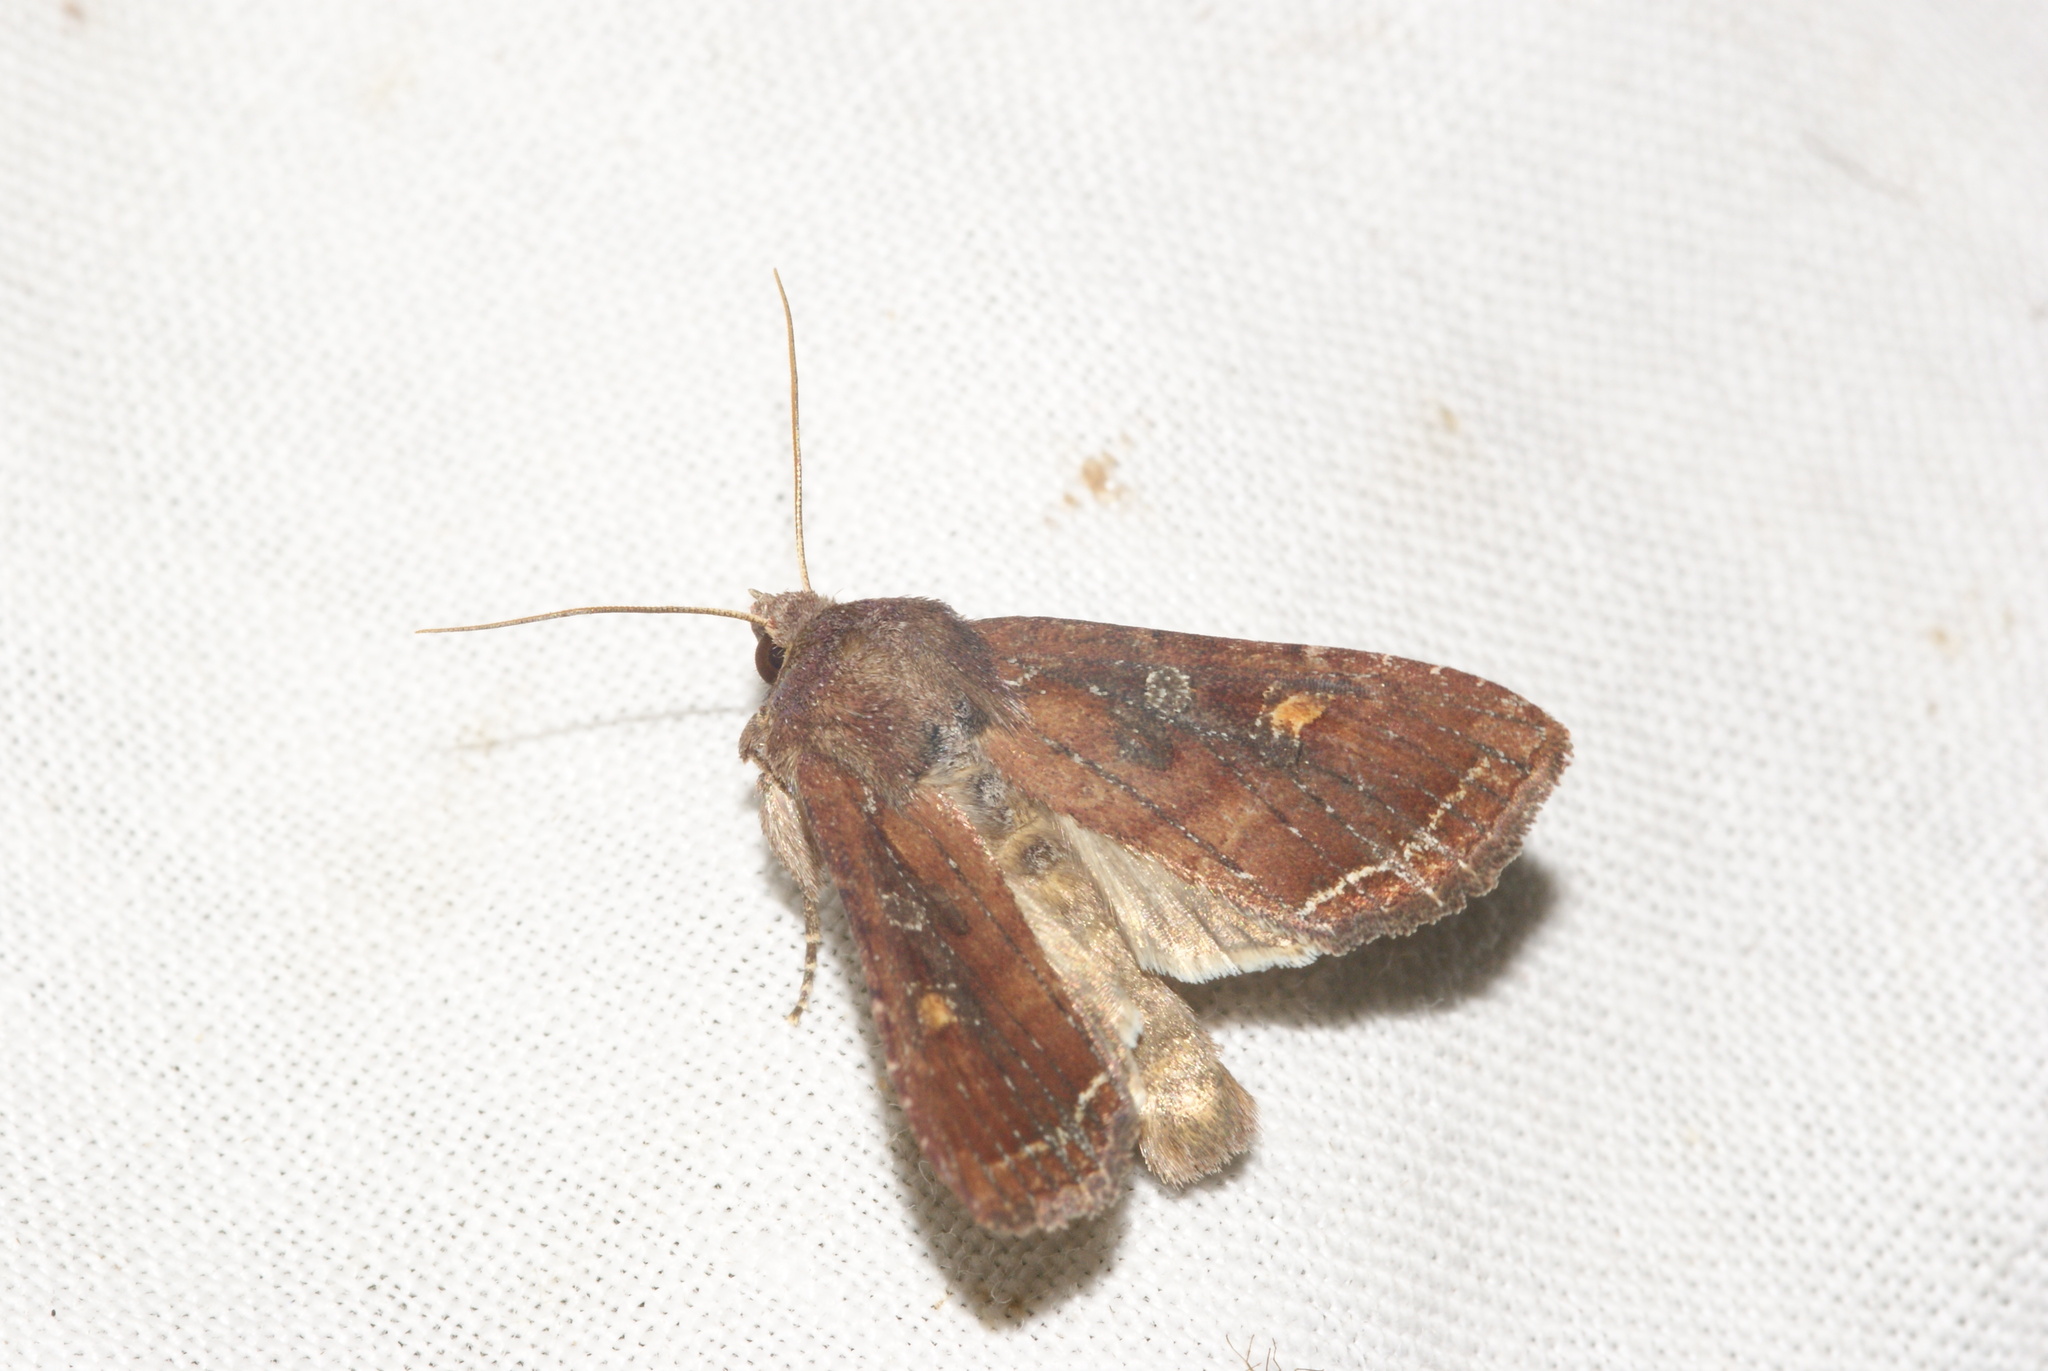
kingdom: Animalia
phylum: Arthropoda
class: Insecta
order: Lepidoptera
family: Noctuidae
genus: Lacanobia
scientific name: Lacanobia oleracea
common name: Bright-line brown-eye
